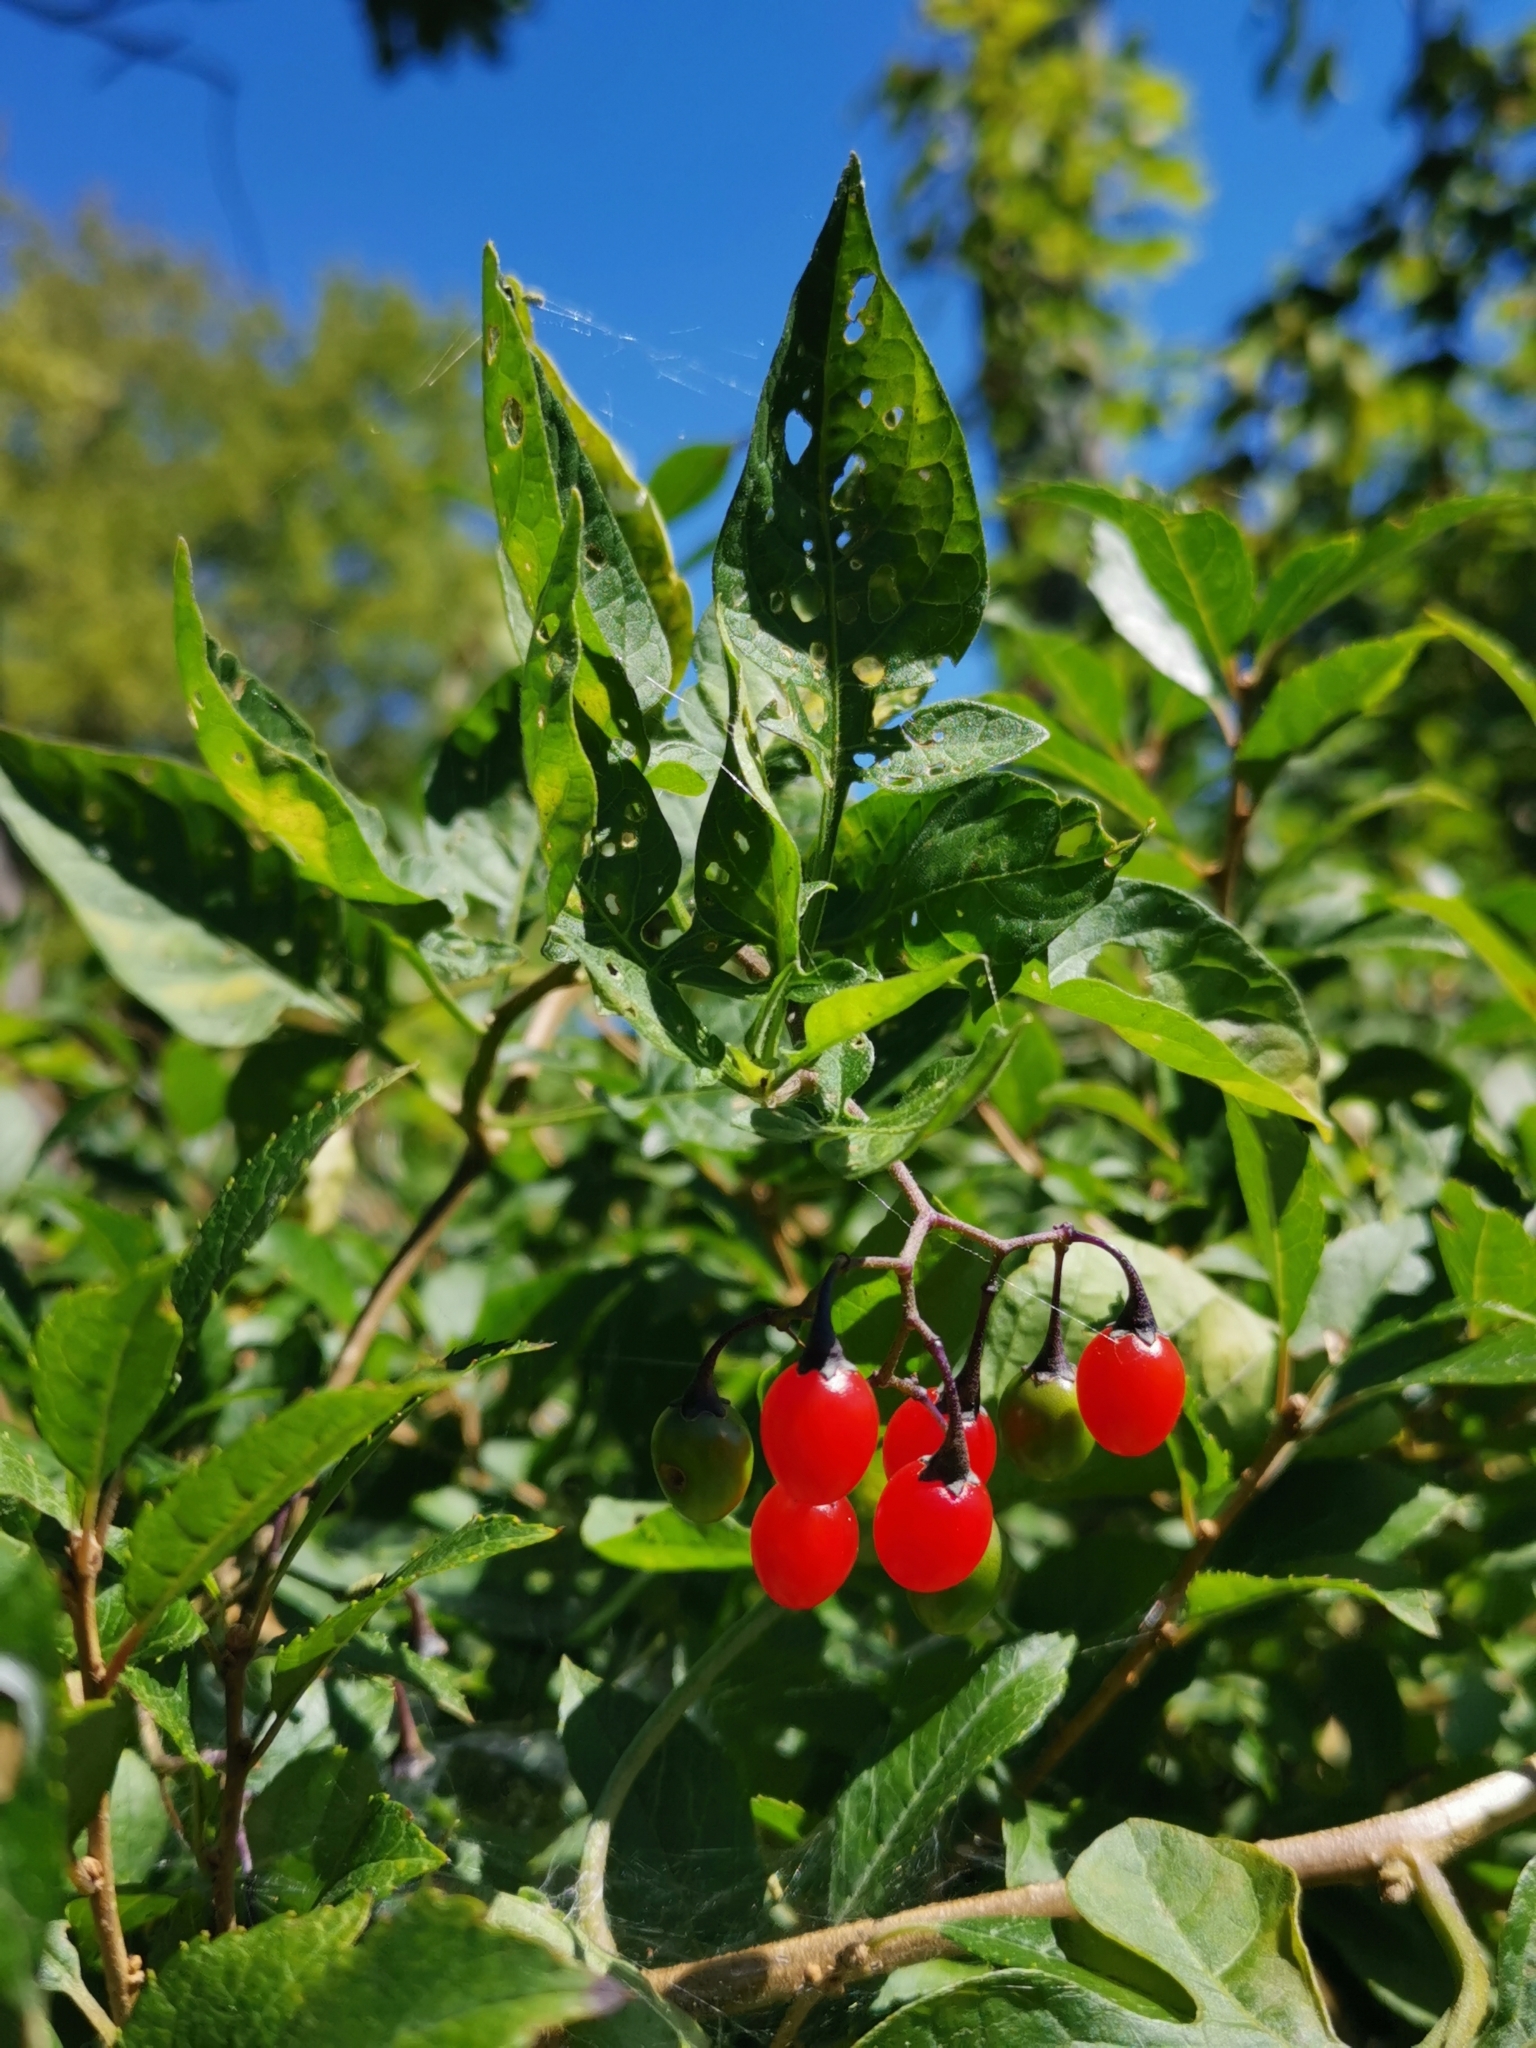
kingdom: Plantae
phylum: Tracheophyta
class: Magnoliopsida
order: Solanales
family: Solanaceae
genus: Solanum
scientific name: Solanum dulcamara
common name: Climbing nightshade
